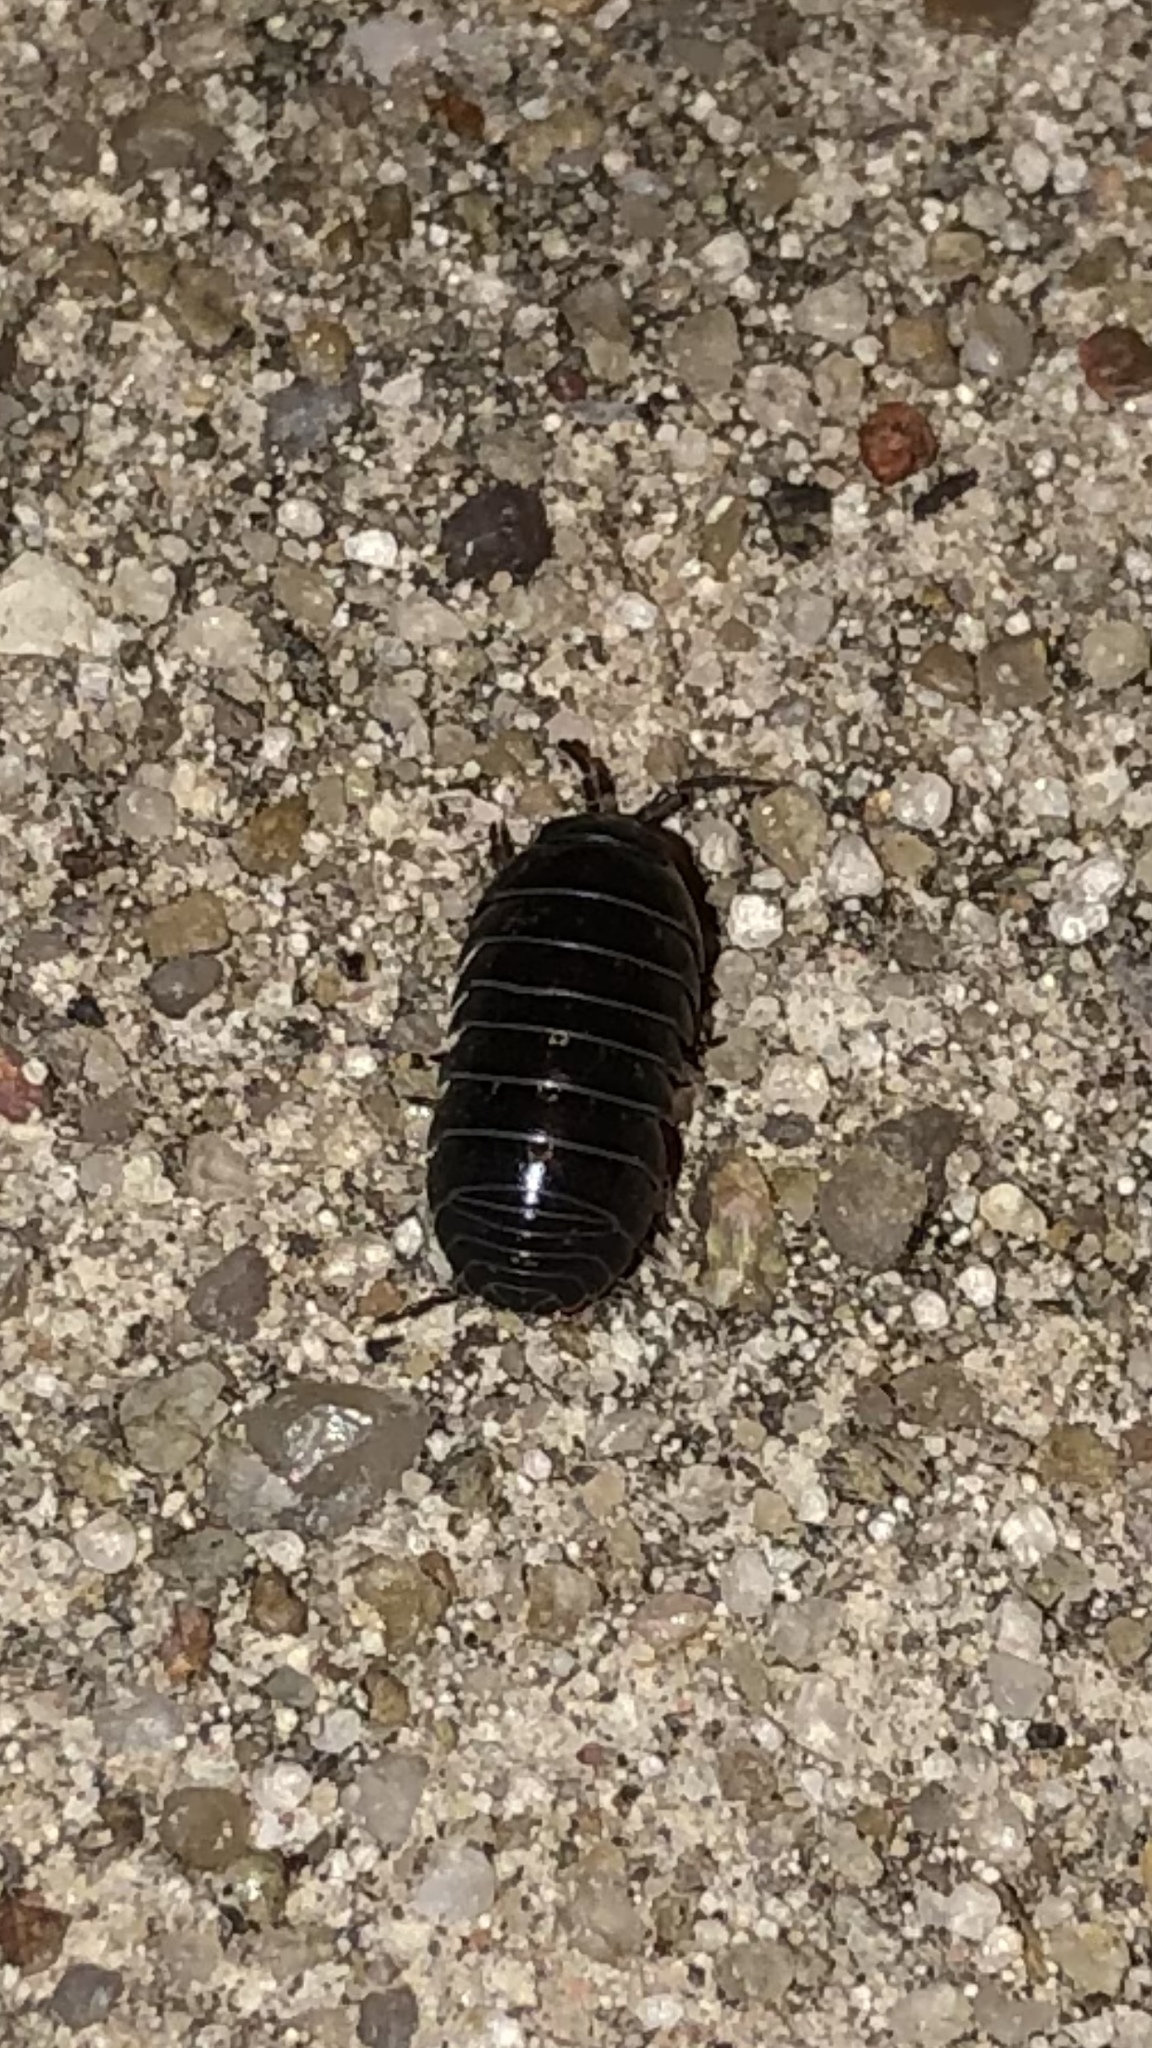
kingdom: Animalia
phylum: Arthropoda
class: Malacostraca
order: Isopoda
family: Armadillidiidae
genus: Armadillidium
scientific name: Armadillidium vulgare
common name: Common pill woodlouse
